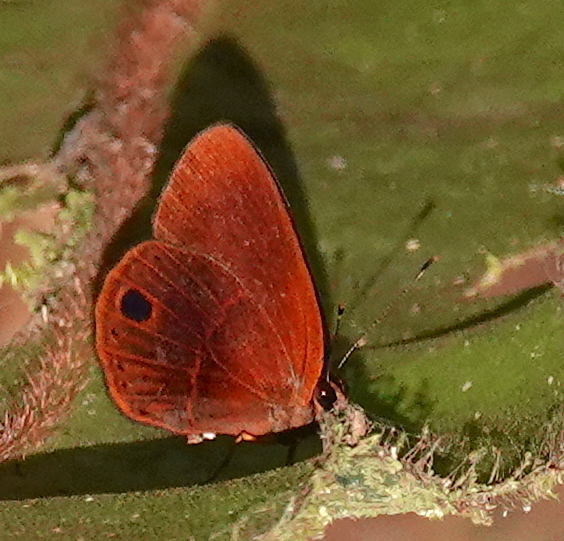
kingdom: Animalia
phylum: Arthropoda
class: Insecta
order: Lepidoptera
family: Lycaenidae
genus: Euselasia
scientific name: Euselasia micaela
